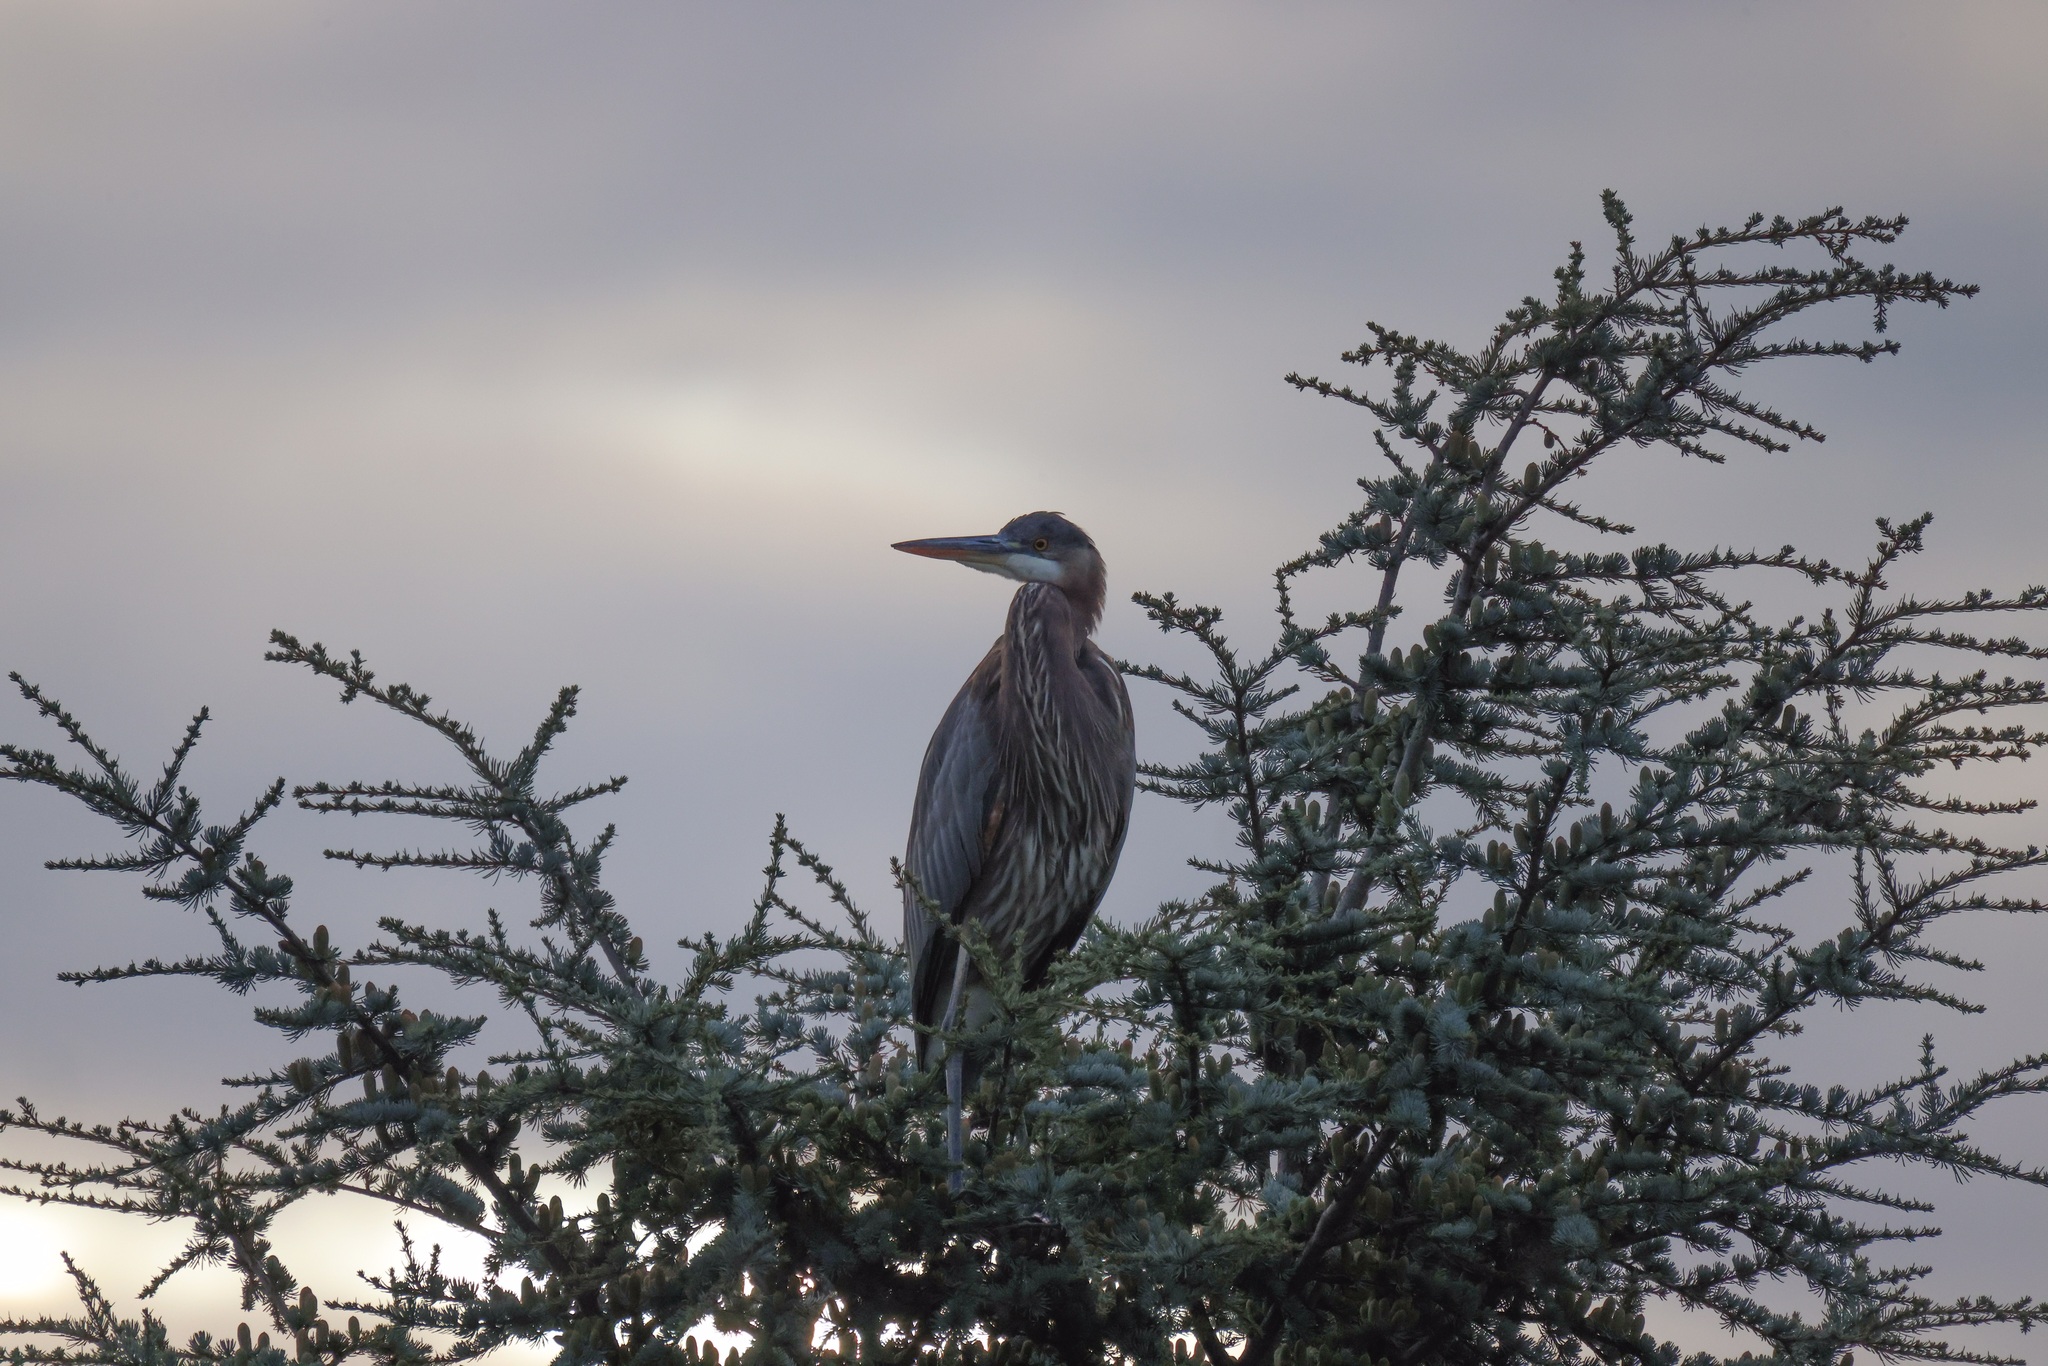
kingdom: Animalia
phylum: Chordata
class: Aves
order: Pelecaniformes
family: Ardeidae
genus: Ardea
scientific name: Ardea herodias
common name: Great blue heron
